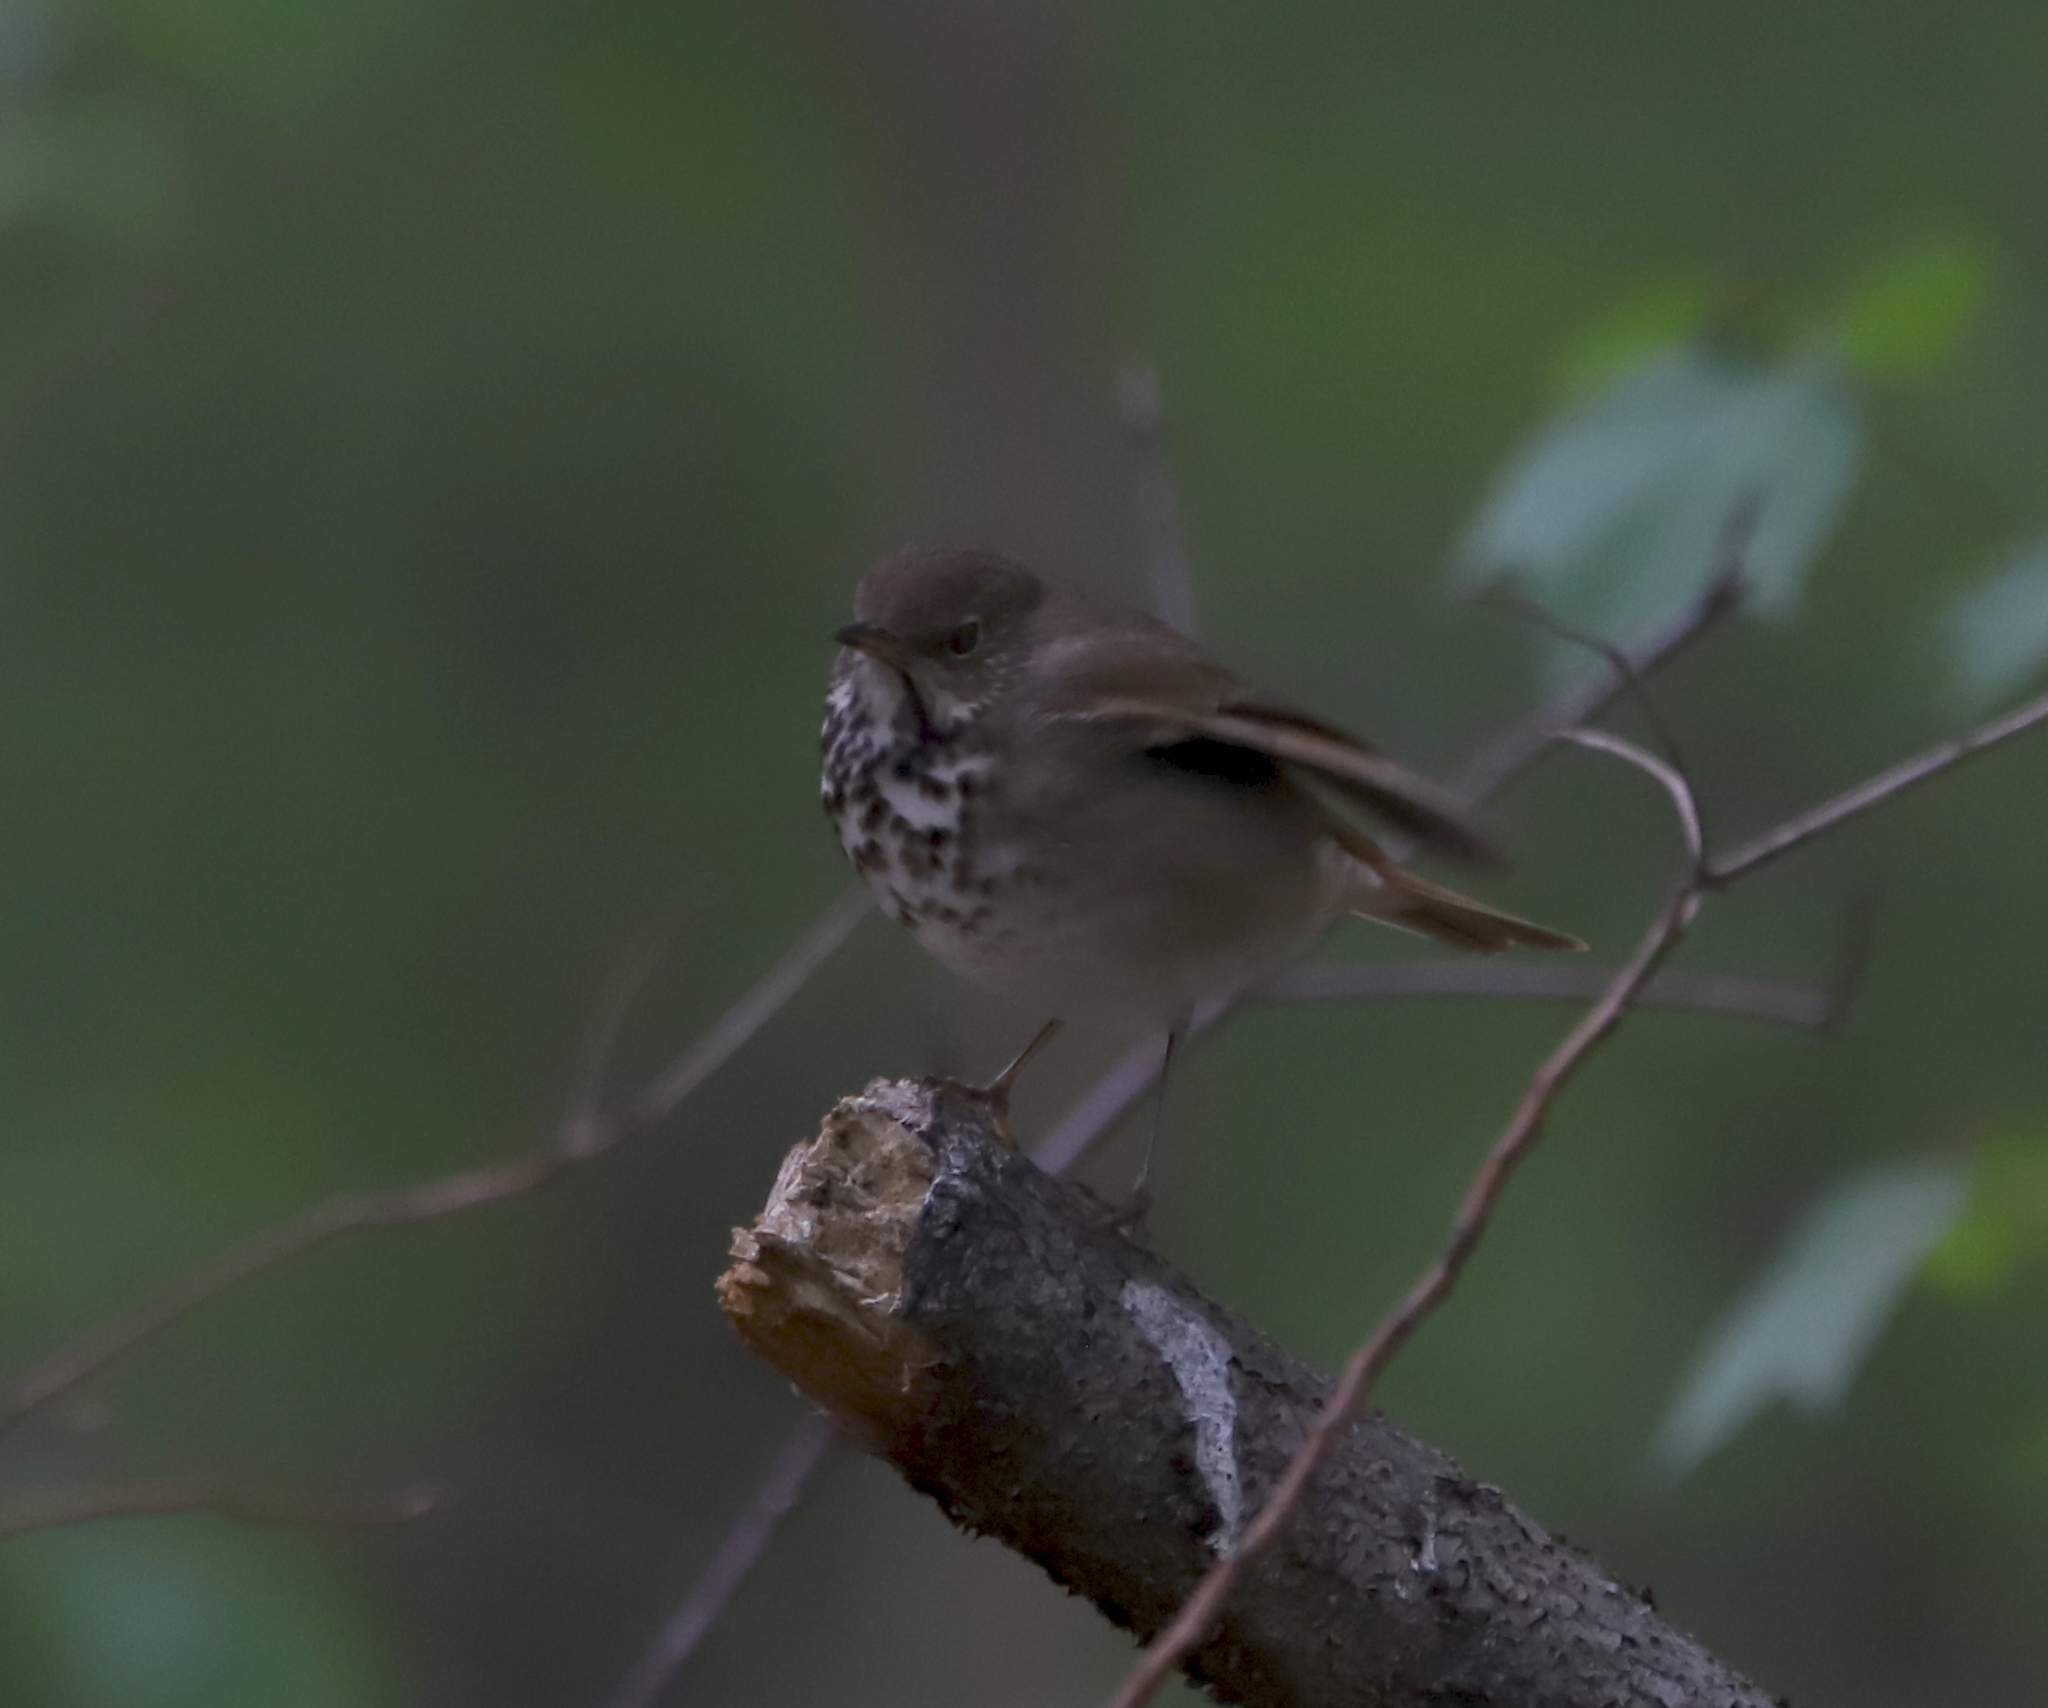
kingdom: Animalia
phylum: Chordata
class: Aves
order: Passeriformes
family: Turdidae
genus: Catharus
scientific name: Catharus guttatus
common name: Hermit thrush
